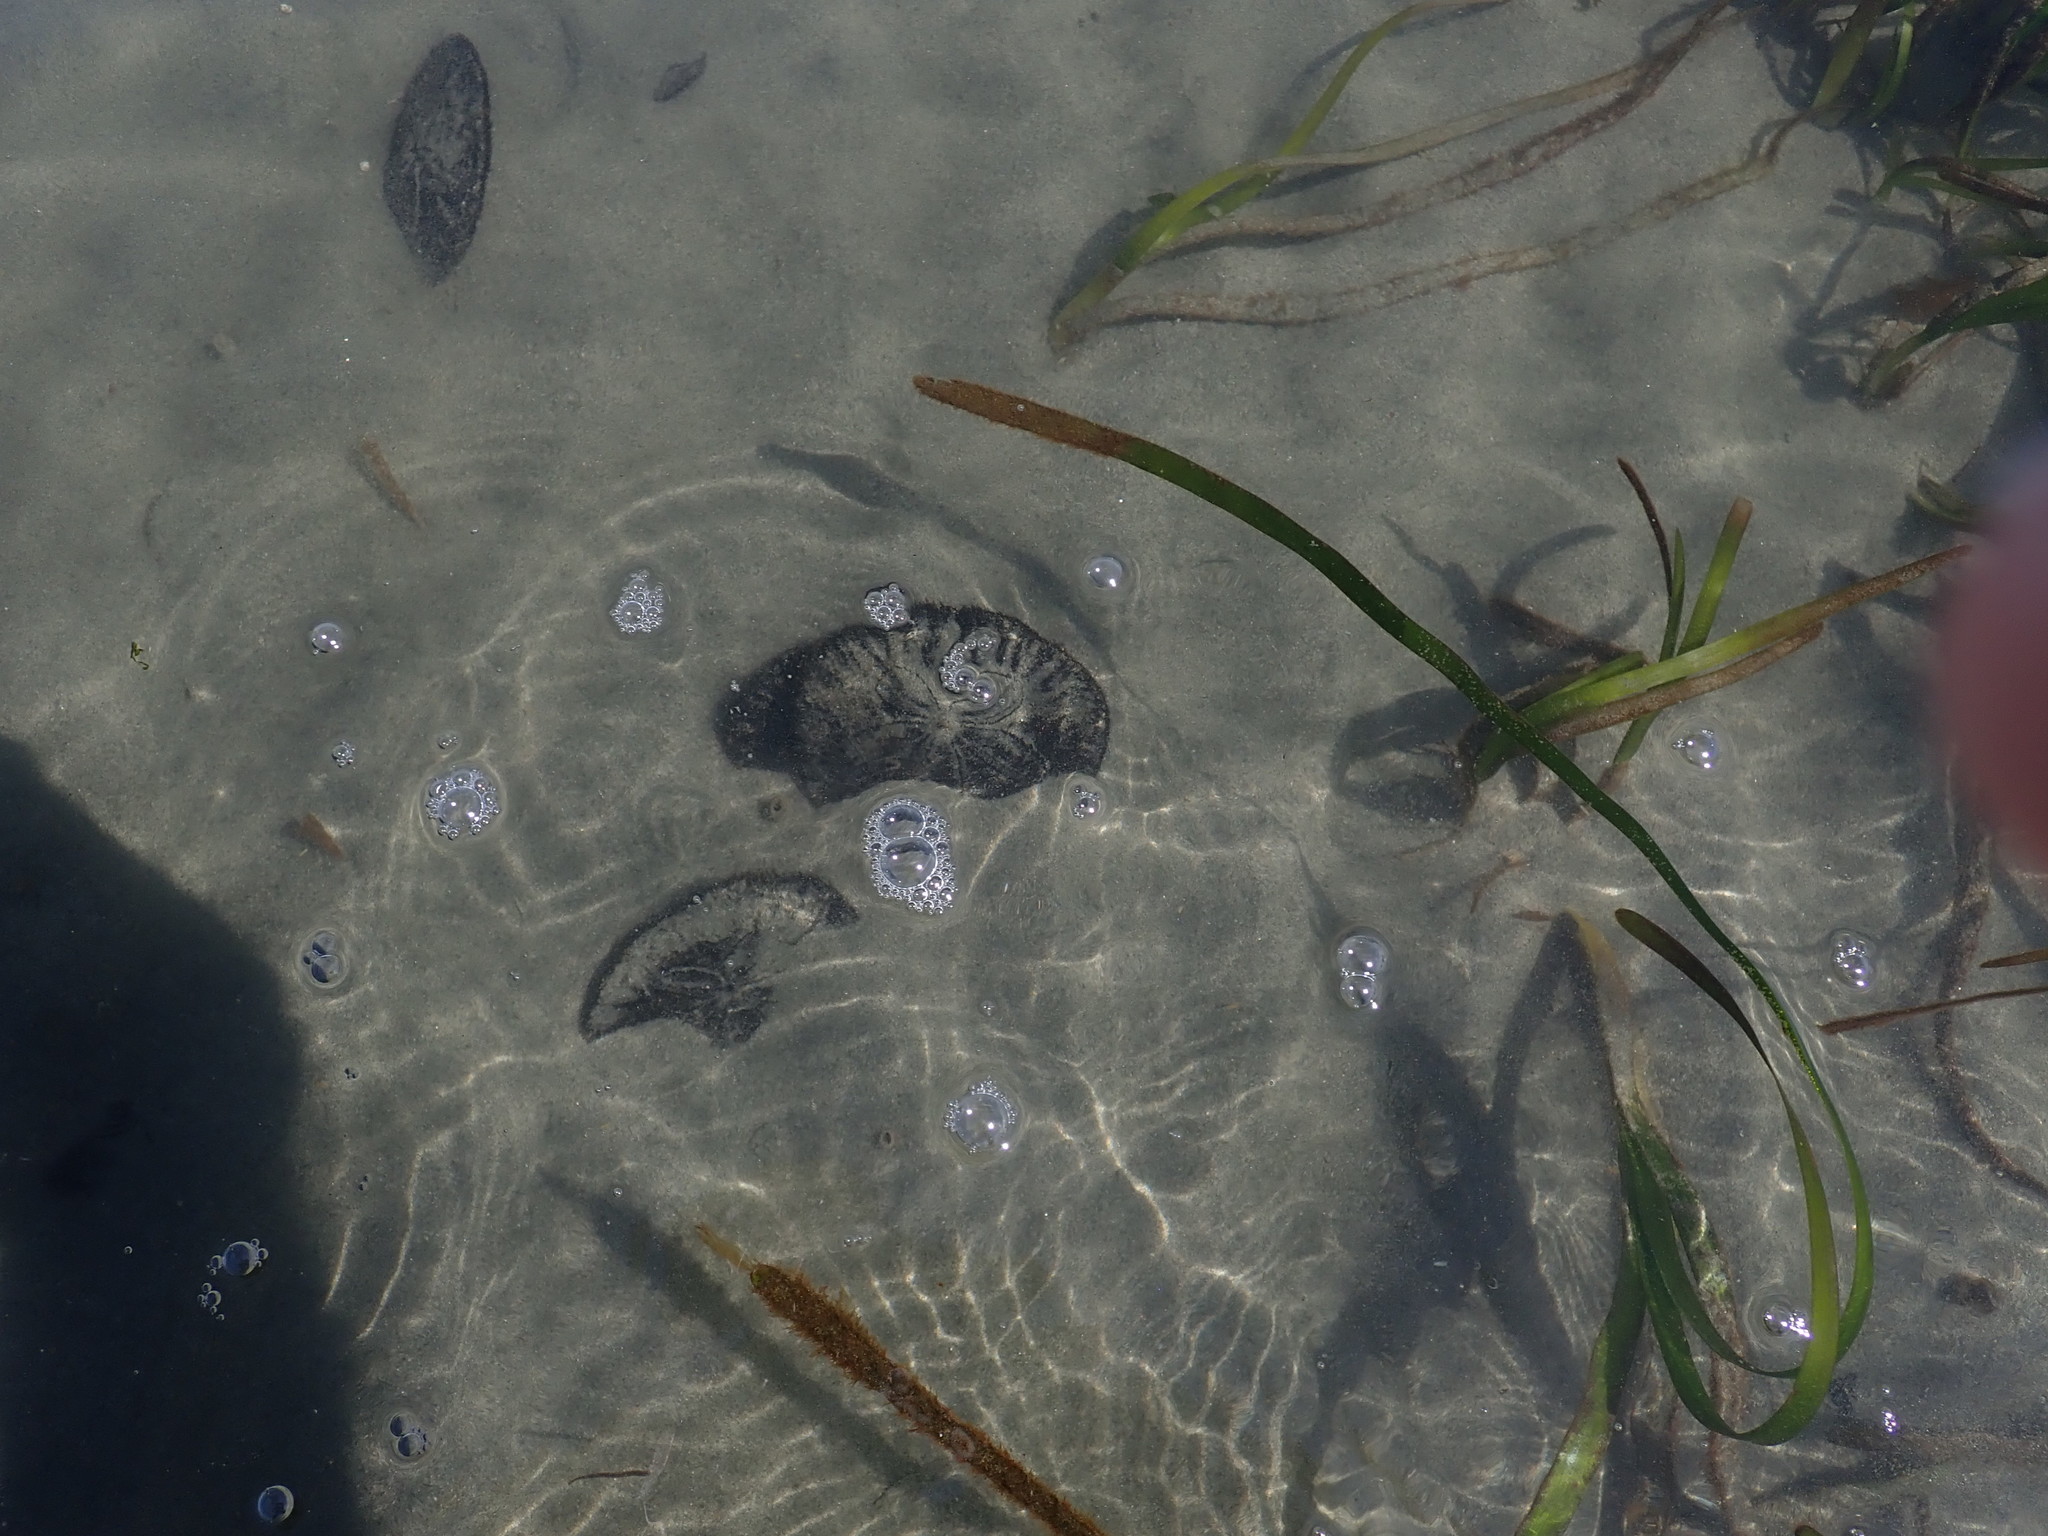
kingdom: Animalia
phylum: Echinodermata
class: Echinoidea
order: Echinolampadacea
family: Dendrasteridae
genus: Dendraster
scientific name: Dendraster excentricus
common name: Eccentric sand dollar sea urchin
